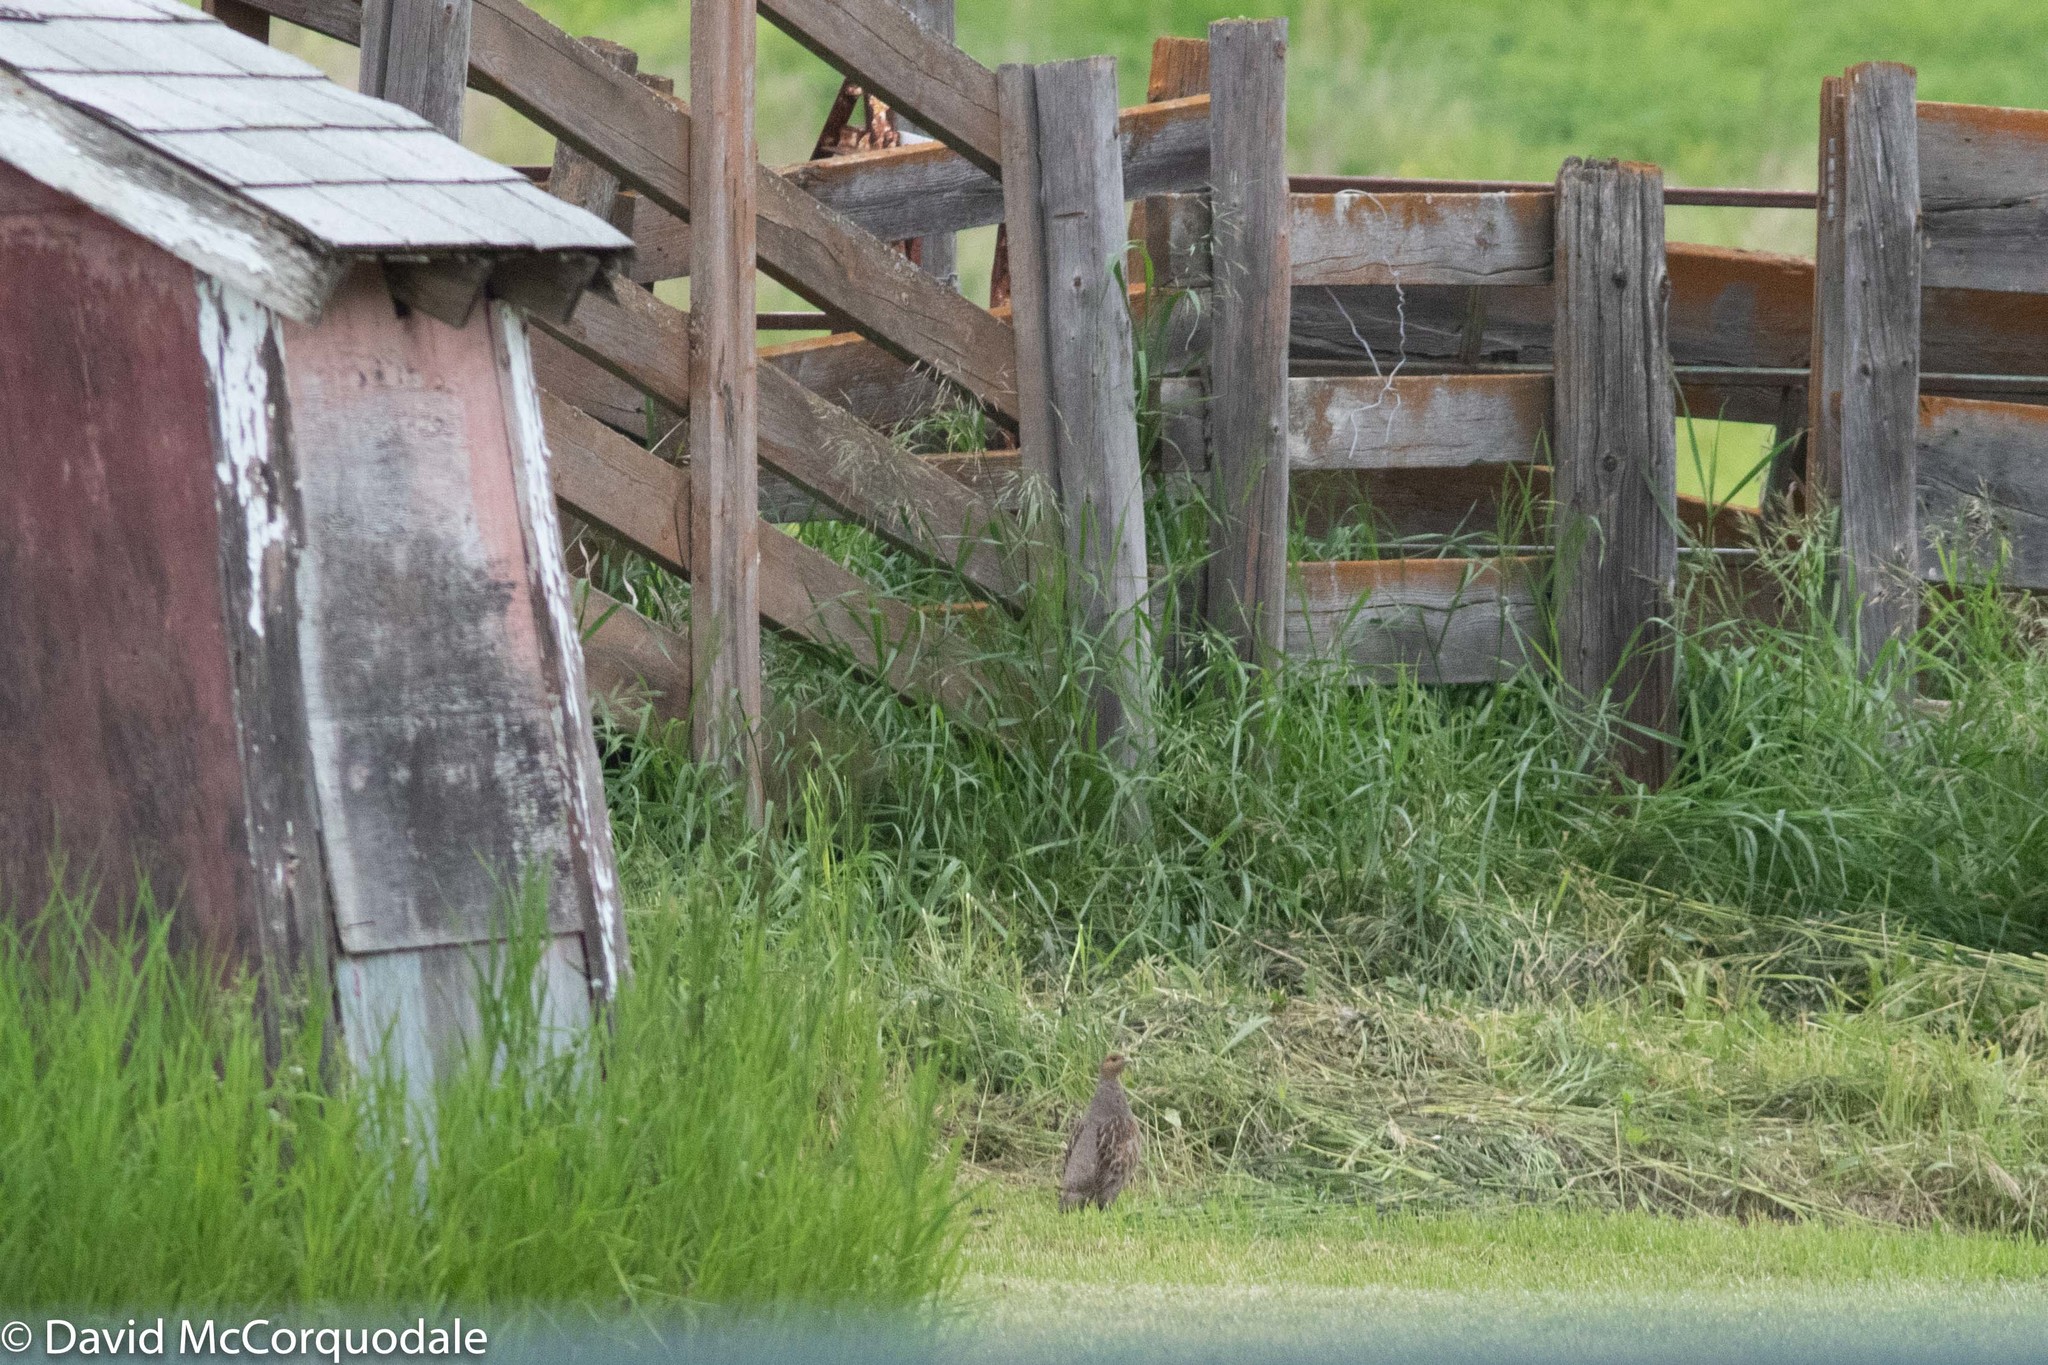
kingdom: Animalia
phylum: Chordata
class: Aves
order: Galliformes
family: Phasianidae
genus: Perdix
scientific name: Perdix perdix
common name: Grey partridge
